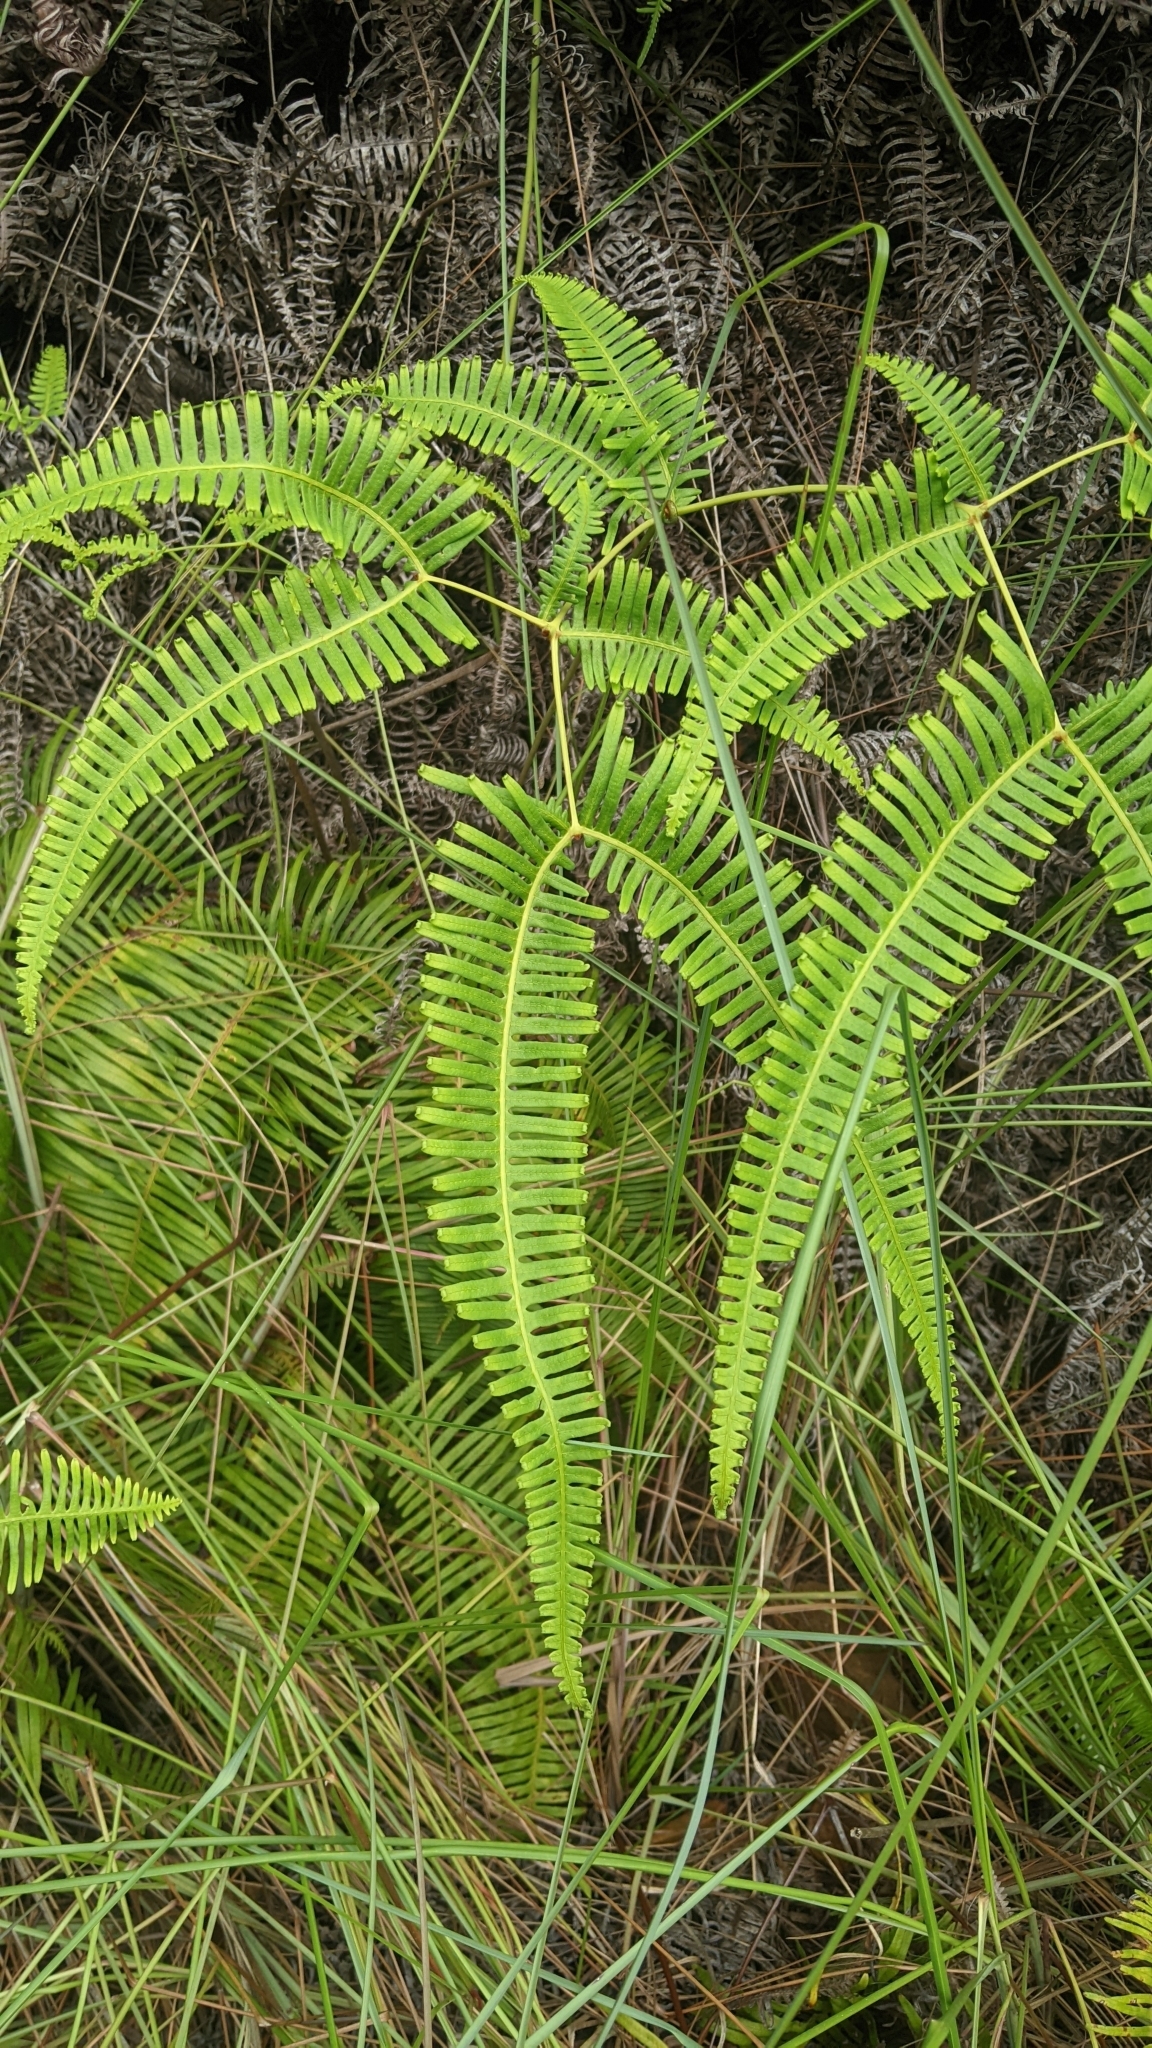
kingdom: Plantae
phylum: Tracheophyta
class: Polypodiopsida
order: Gleicheniales
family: Gleicheniaceae
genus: Dicranopteris
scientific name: Dicranopteris linearis
